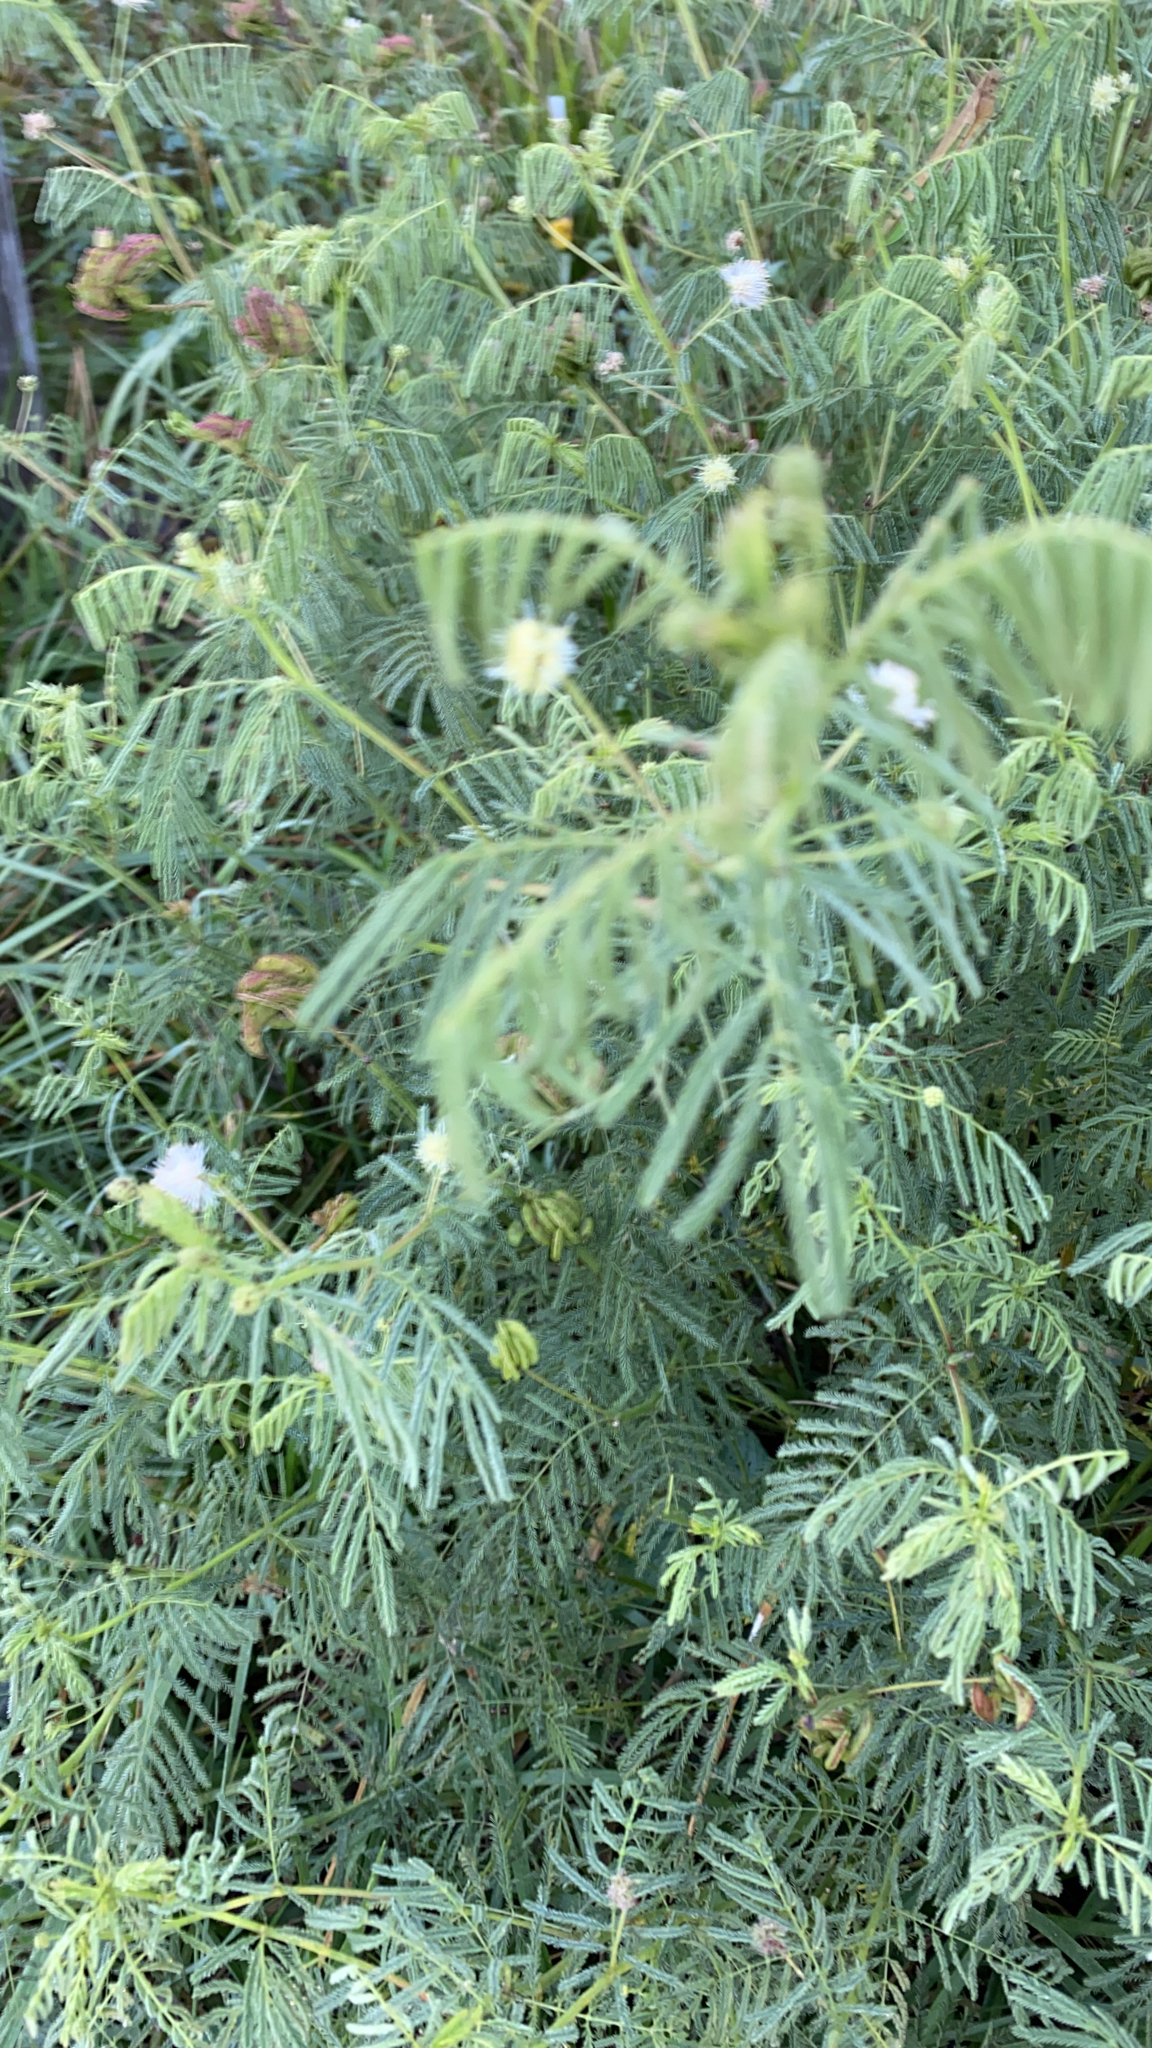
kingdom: Plantae
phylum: Tracheophyta
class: Magnoliopsida
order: Fabales
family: Fabaceae
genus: Desmanthus
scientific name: Desmanthus illinoensis
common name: Illinois bundle-flower
